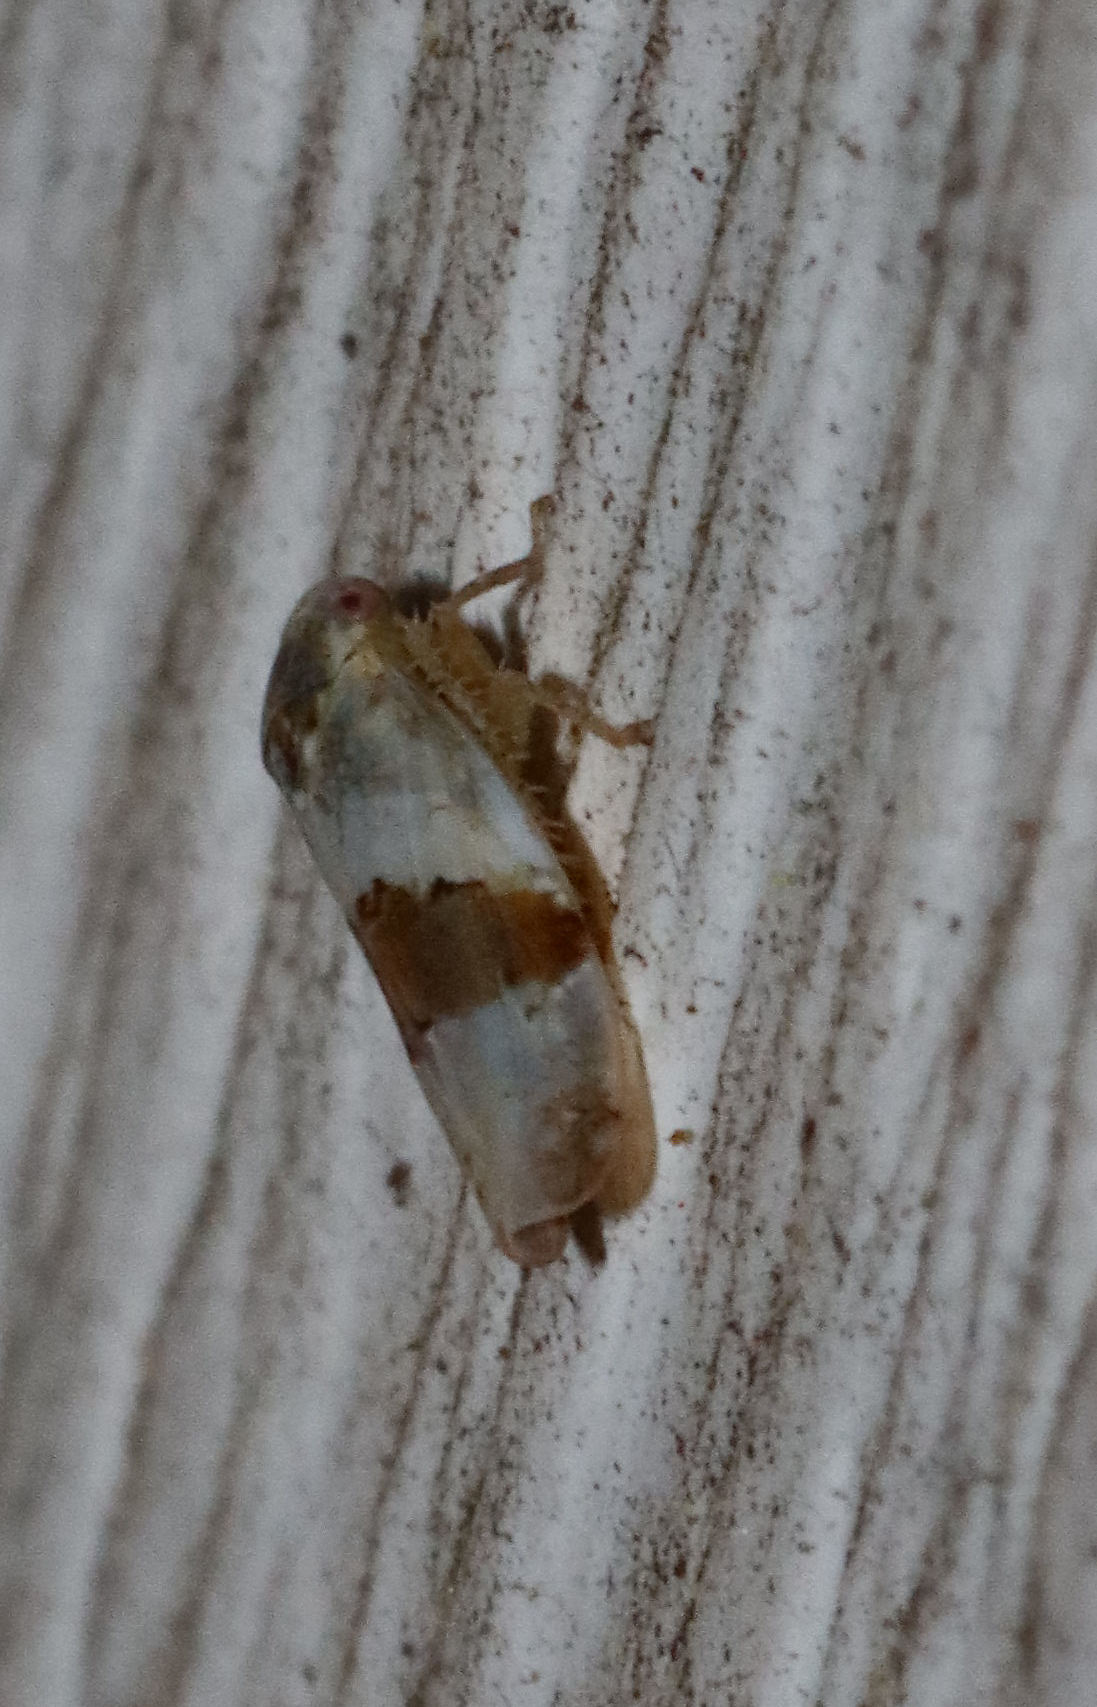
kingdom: Animalia
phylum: Arthropoda
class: Insecta
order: Hemiptera
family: Cicadellidae
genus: Norvellina
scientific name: Norvellina seminuda
